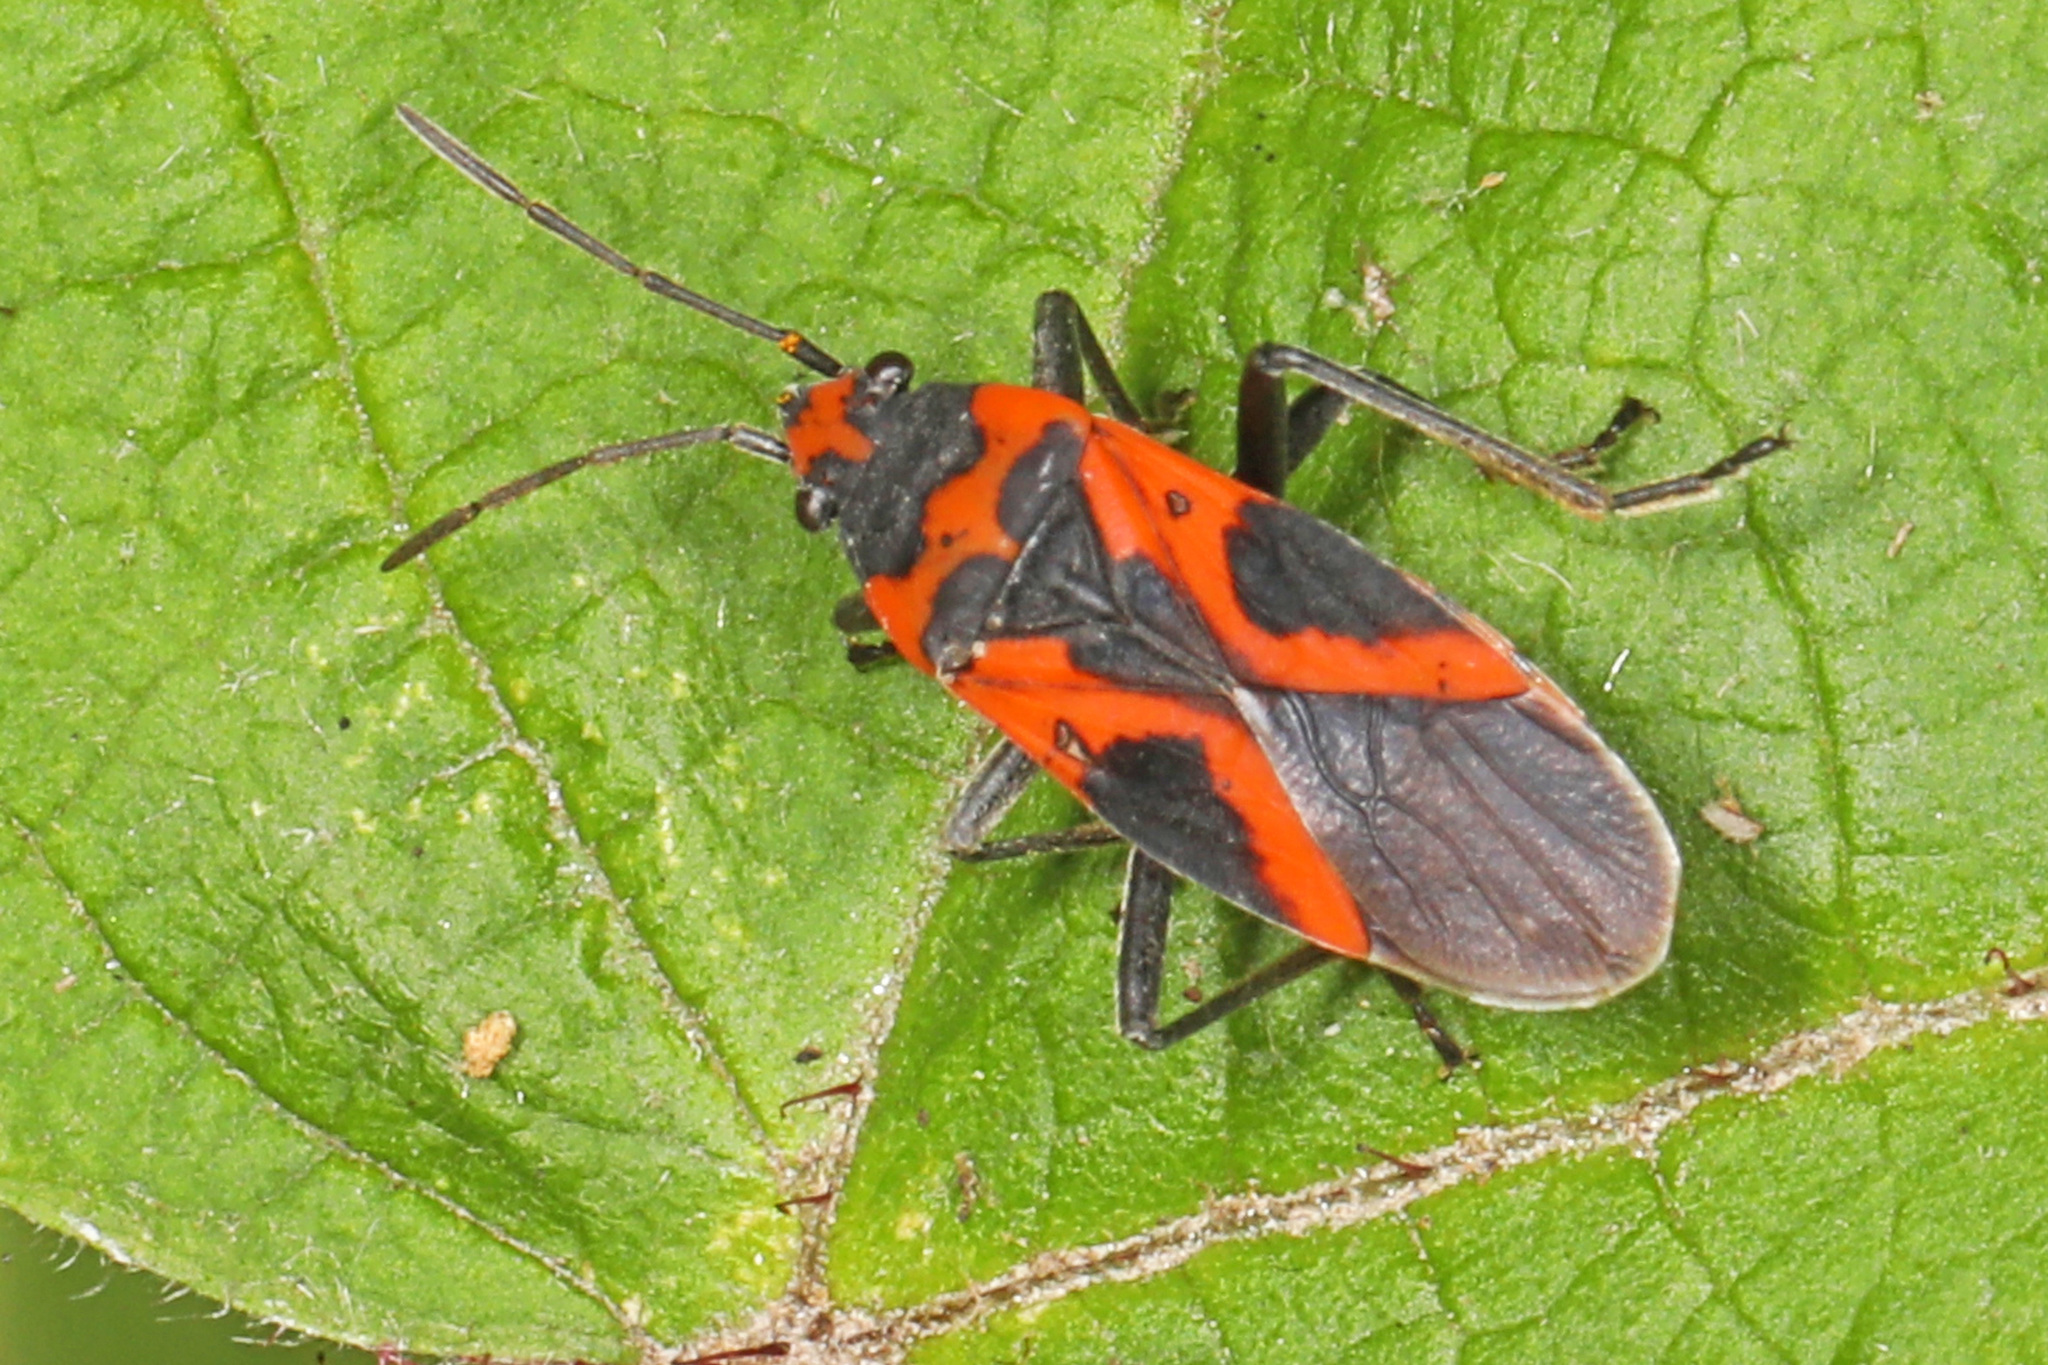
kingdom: Animalia
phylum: Arthropoda
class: Insecta
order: Hemiptera
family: Lygaeidae
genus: Lygaeus
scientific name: Lygaeus turcicus
